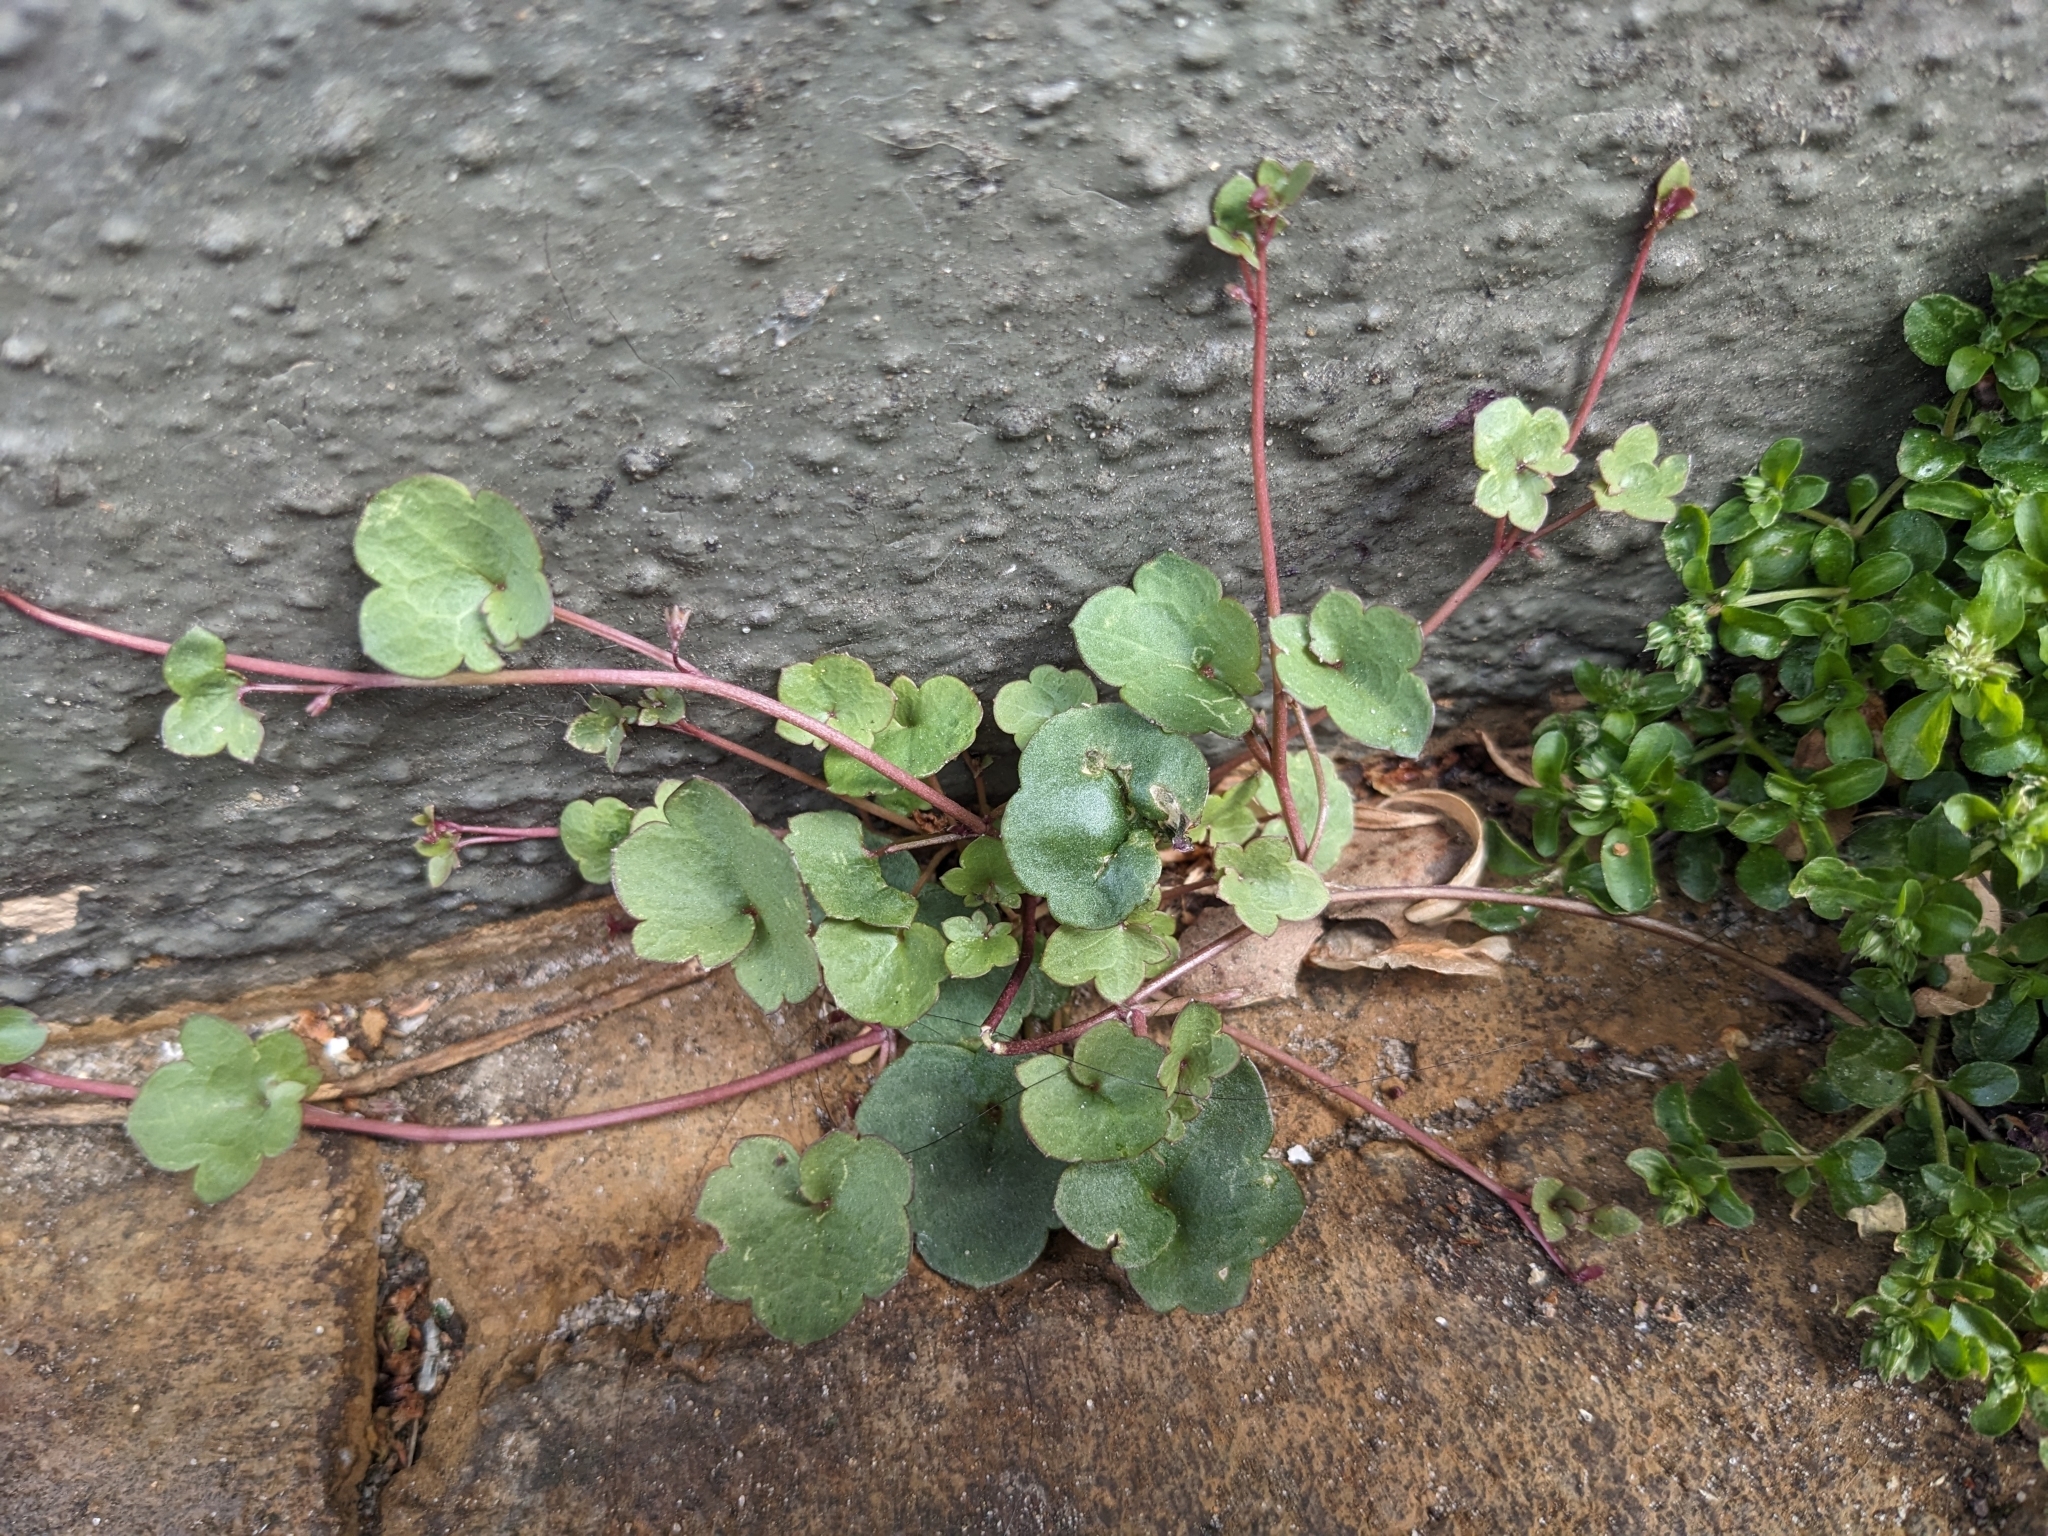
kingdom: Plantae
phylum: Tracheophyta
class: Magnoliopsida
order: Lamiales
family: Plantaginaceae
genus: Cymbalaria
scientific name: Cymbalaria muralis
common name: Ivy-leaved toadflax
